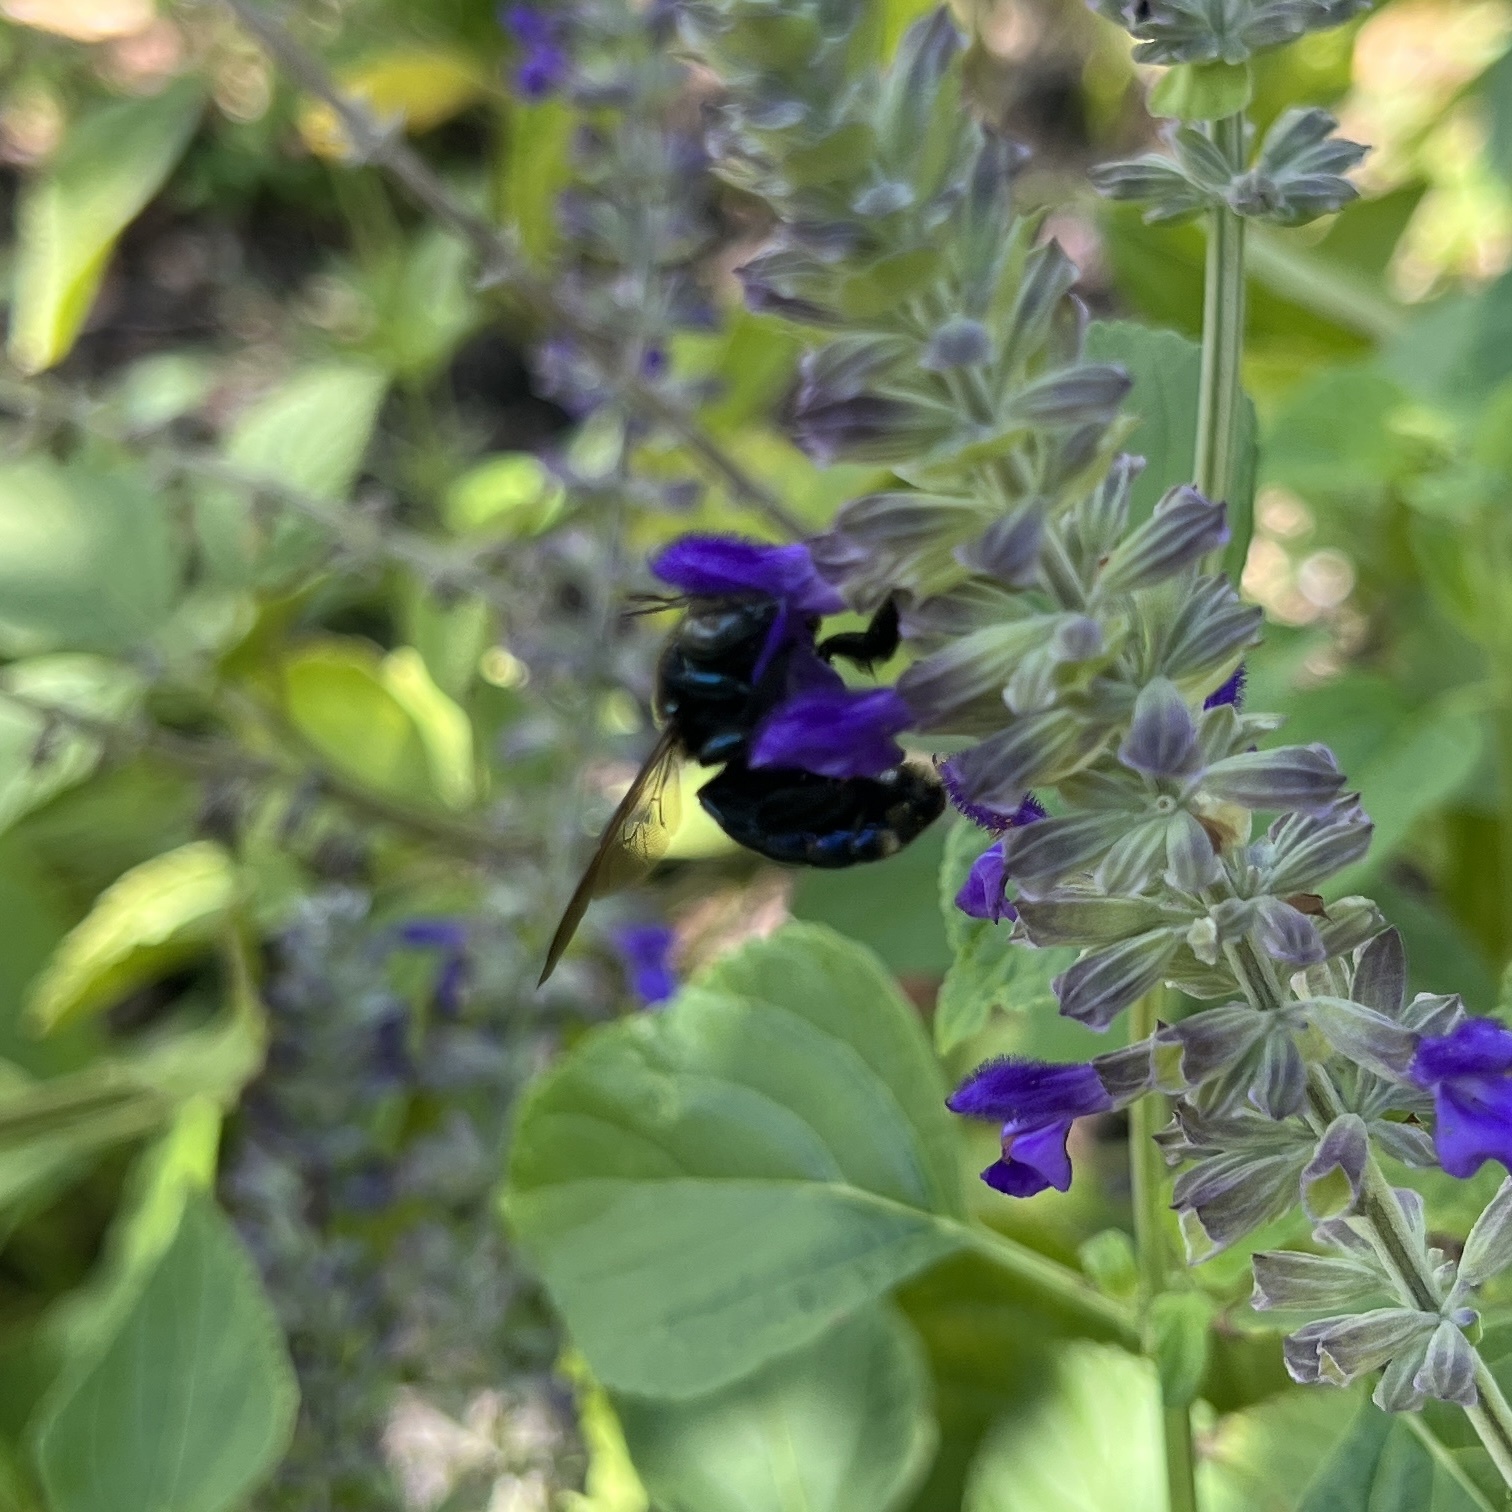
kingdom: Animalia
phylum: Arthropoda
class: Insecta
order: Hymenoptera
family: Apidae
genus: Xylocopa
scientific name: Xylocopa micans
